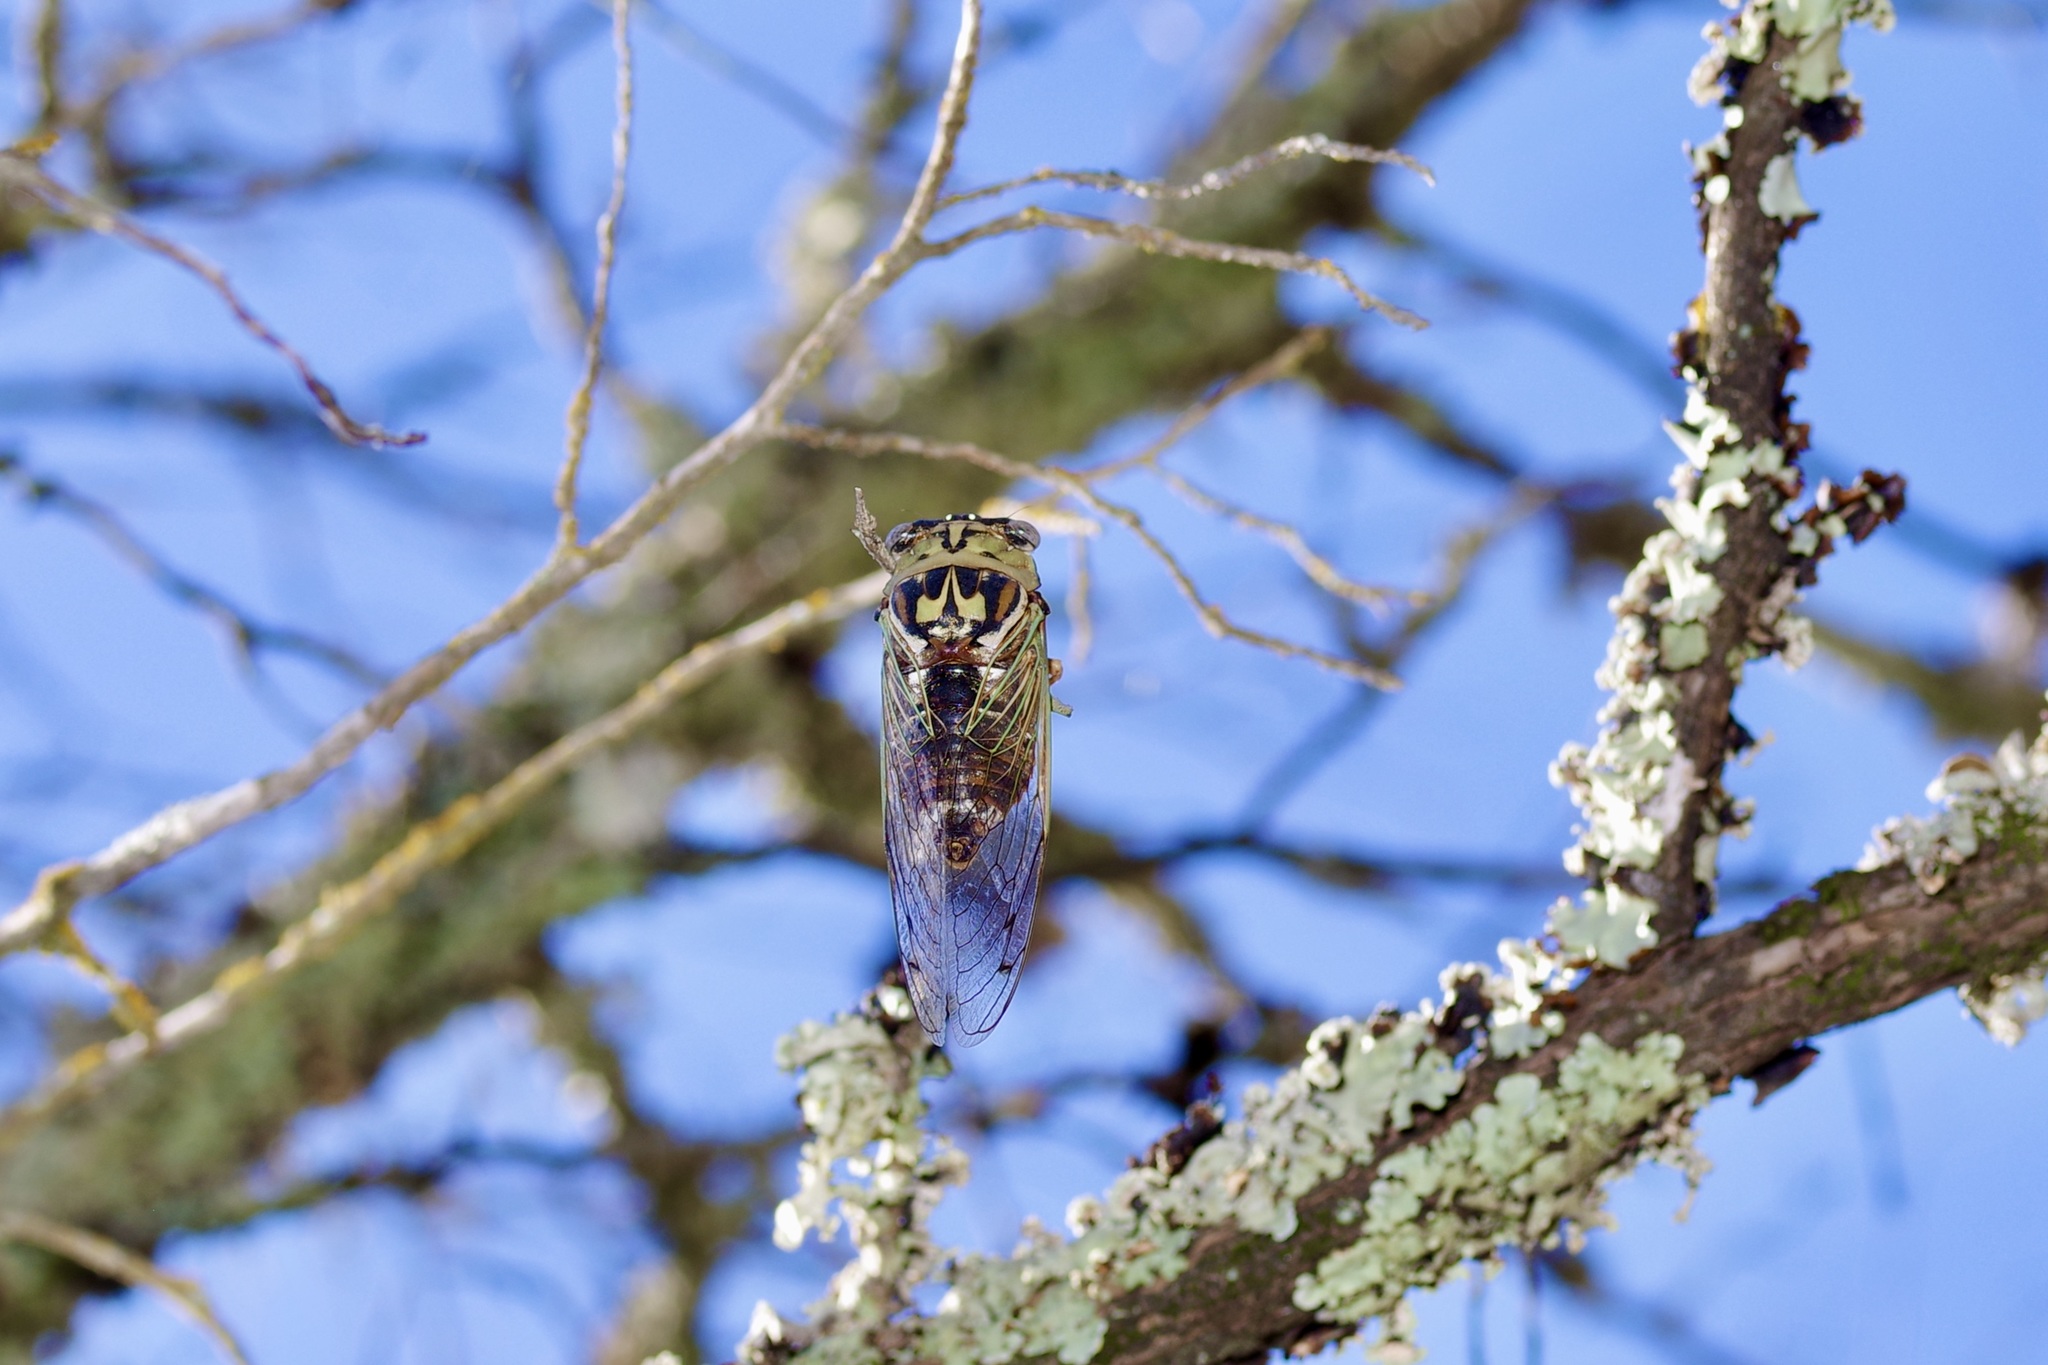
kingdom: Animalia
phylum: Arthropoda
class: Insecta
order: Hemiptera
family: Cicadidae
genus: Megatibicen
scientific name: Megatibicen resh
